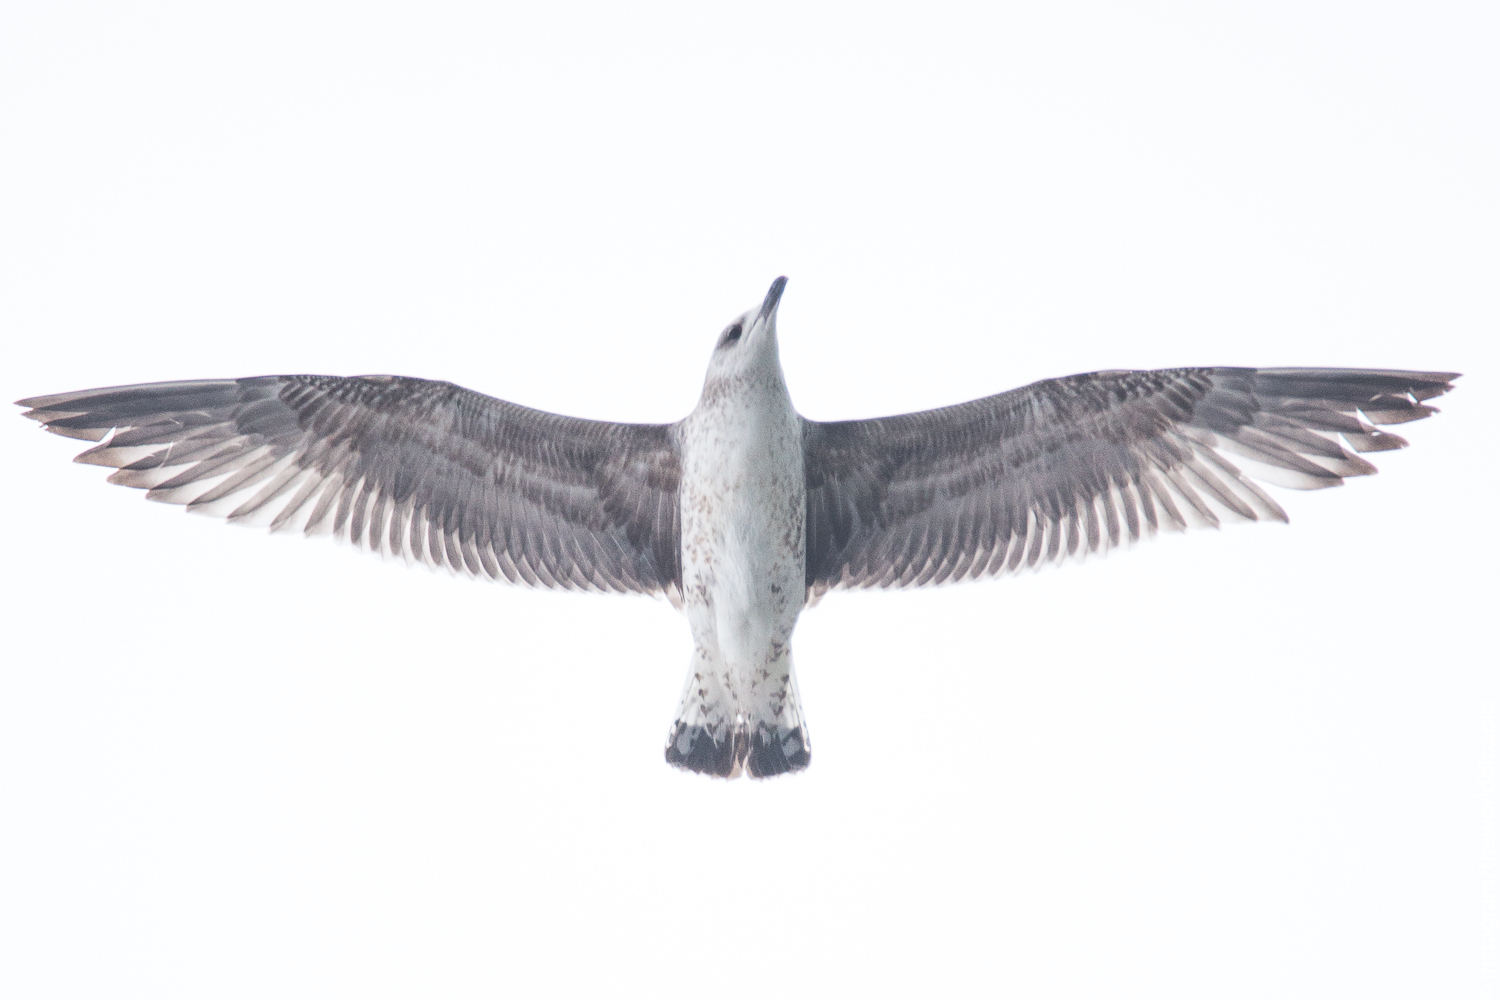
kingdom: Animalia
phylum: Chordata
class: Aves
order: Charadriiformes
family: Laridae
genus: Larus
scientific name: Larus michahellis
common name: Yellow-legged gull
